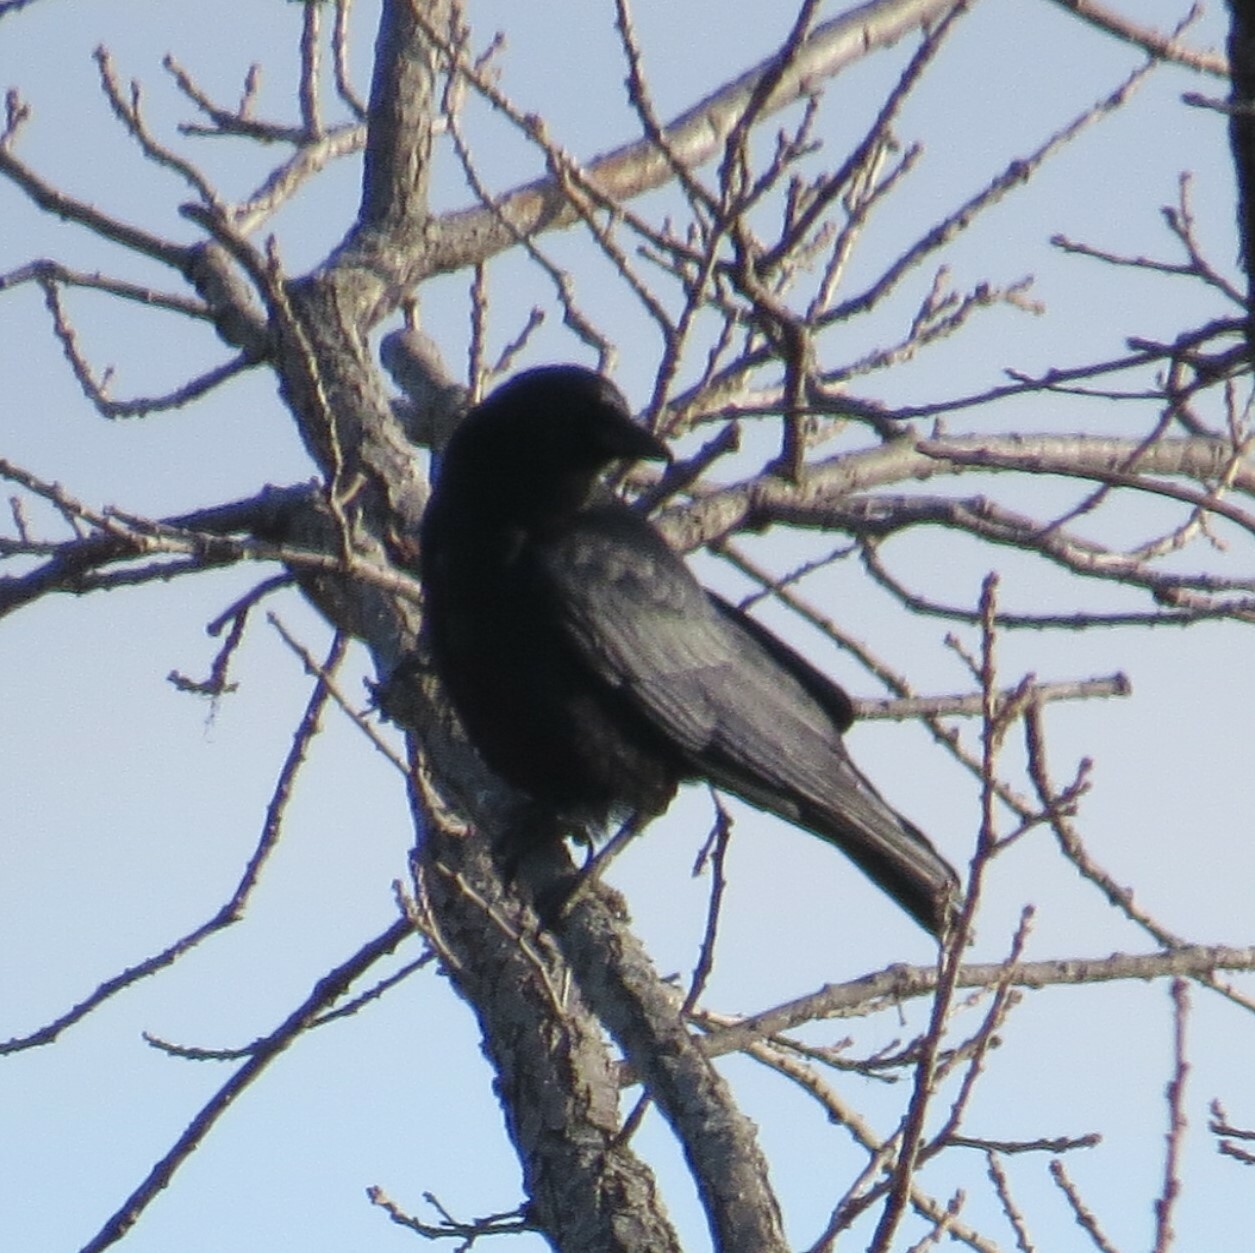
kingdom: Animalia
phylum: Chordata
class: Aves
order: Passeriformes
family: Corvidae
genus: Corvus
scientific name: Corvus brachyrhynchos
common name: American crow
